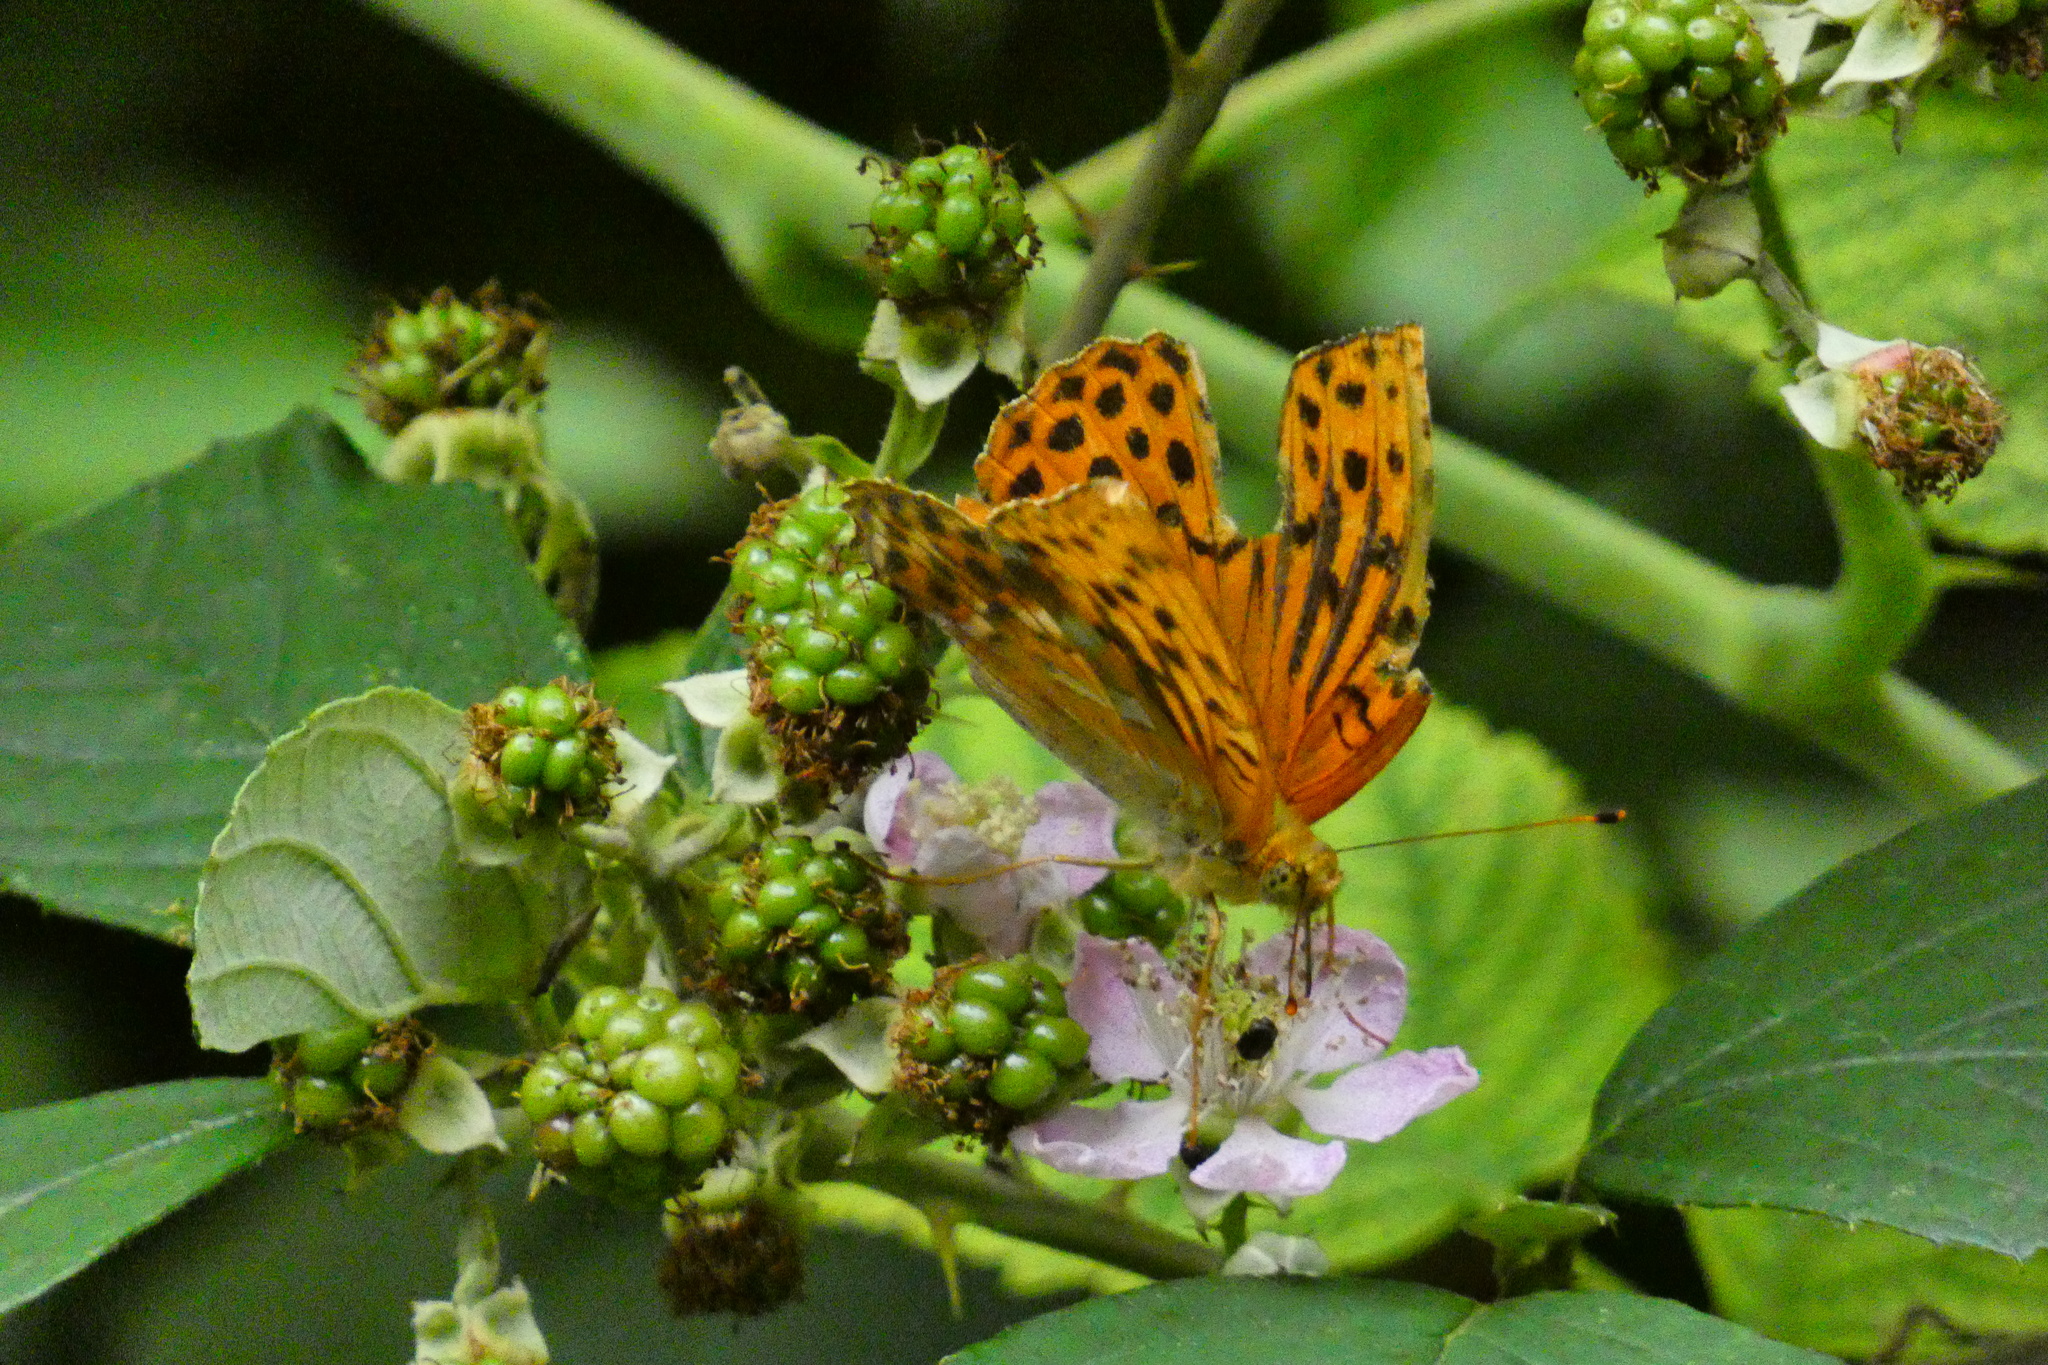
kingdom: Animalia
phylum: Arthropoda
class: Insecta
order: Lepidoptera
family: Nymphalidae
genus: Argynnis
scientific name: Argynnis paphia
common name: Silver-washed fritillary
